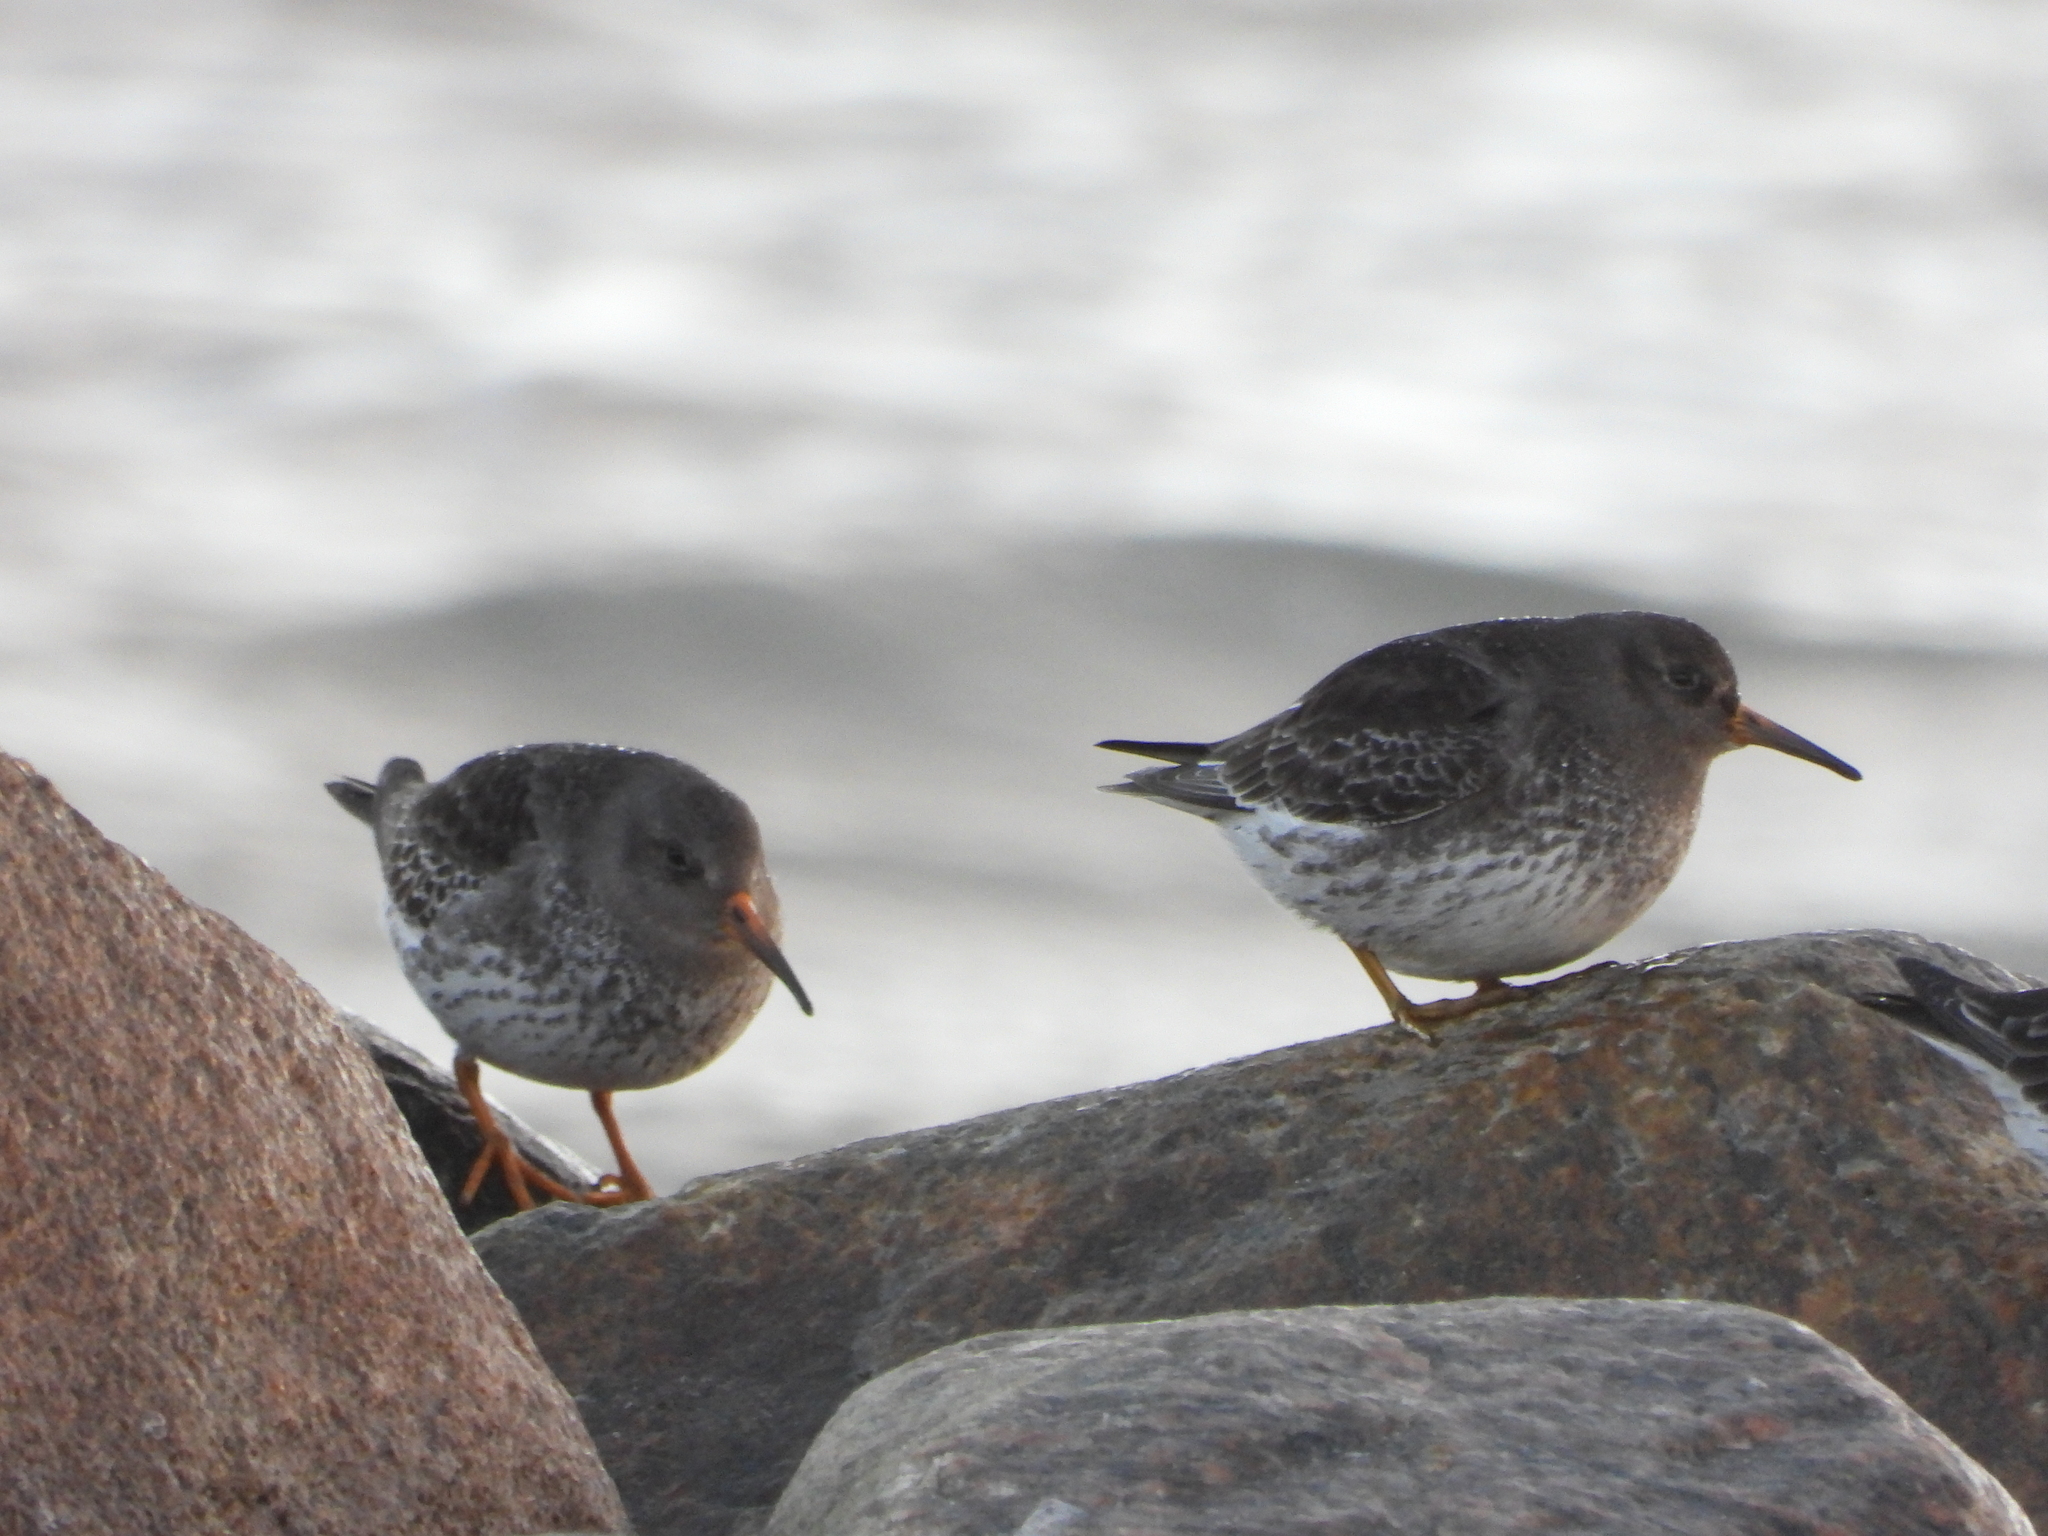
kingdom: Animalia
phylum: Chordata
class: Aves
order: Charadriiformes
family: Scolopacidae
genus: Calidris
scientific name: Calidris maritima
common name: Purple sandpiper
